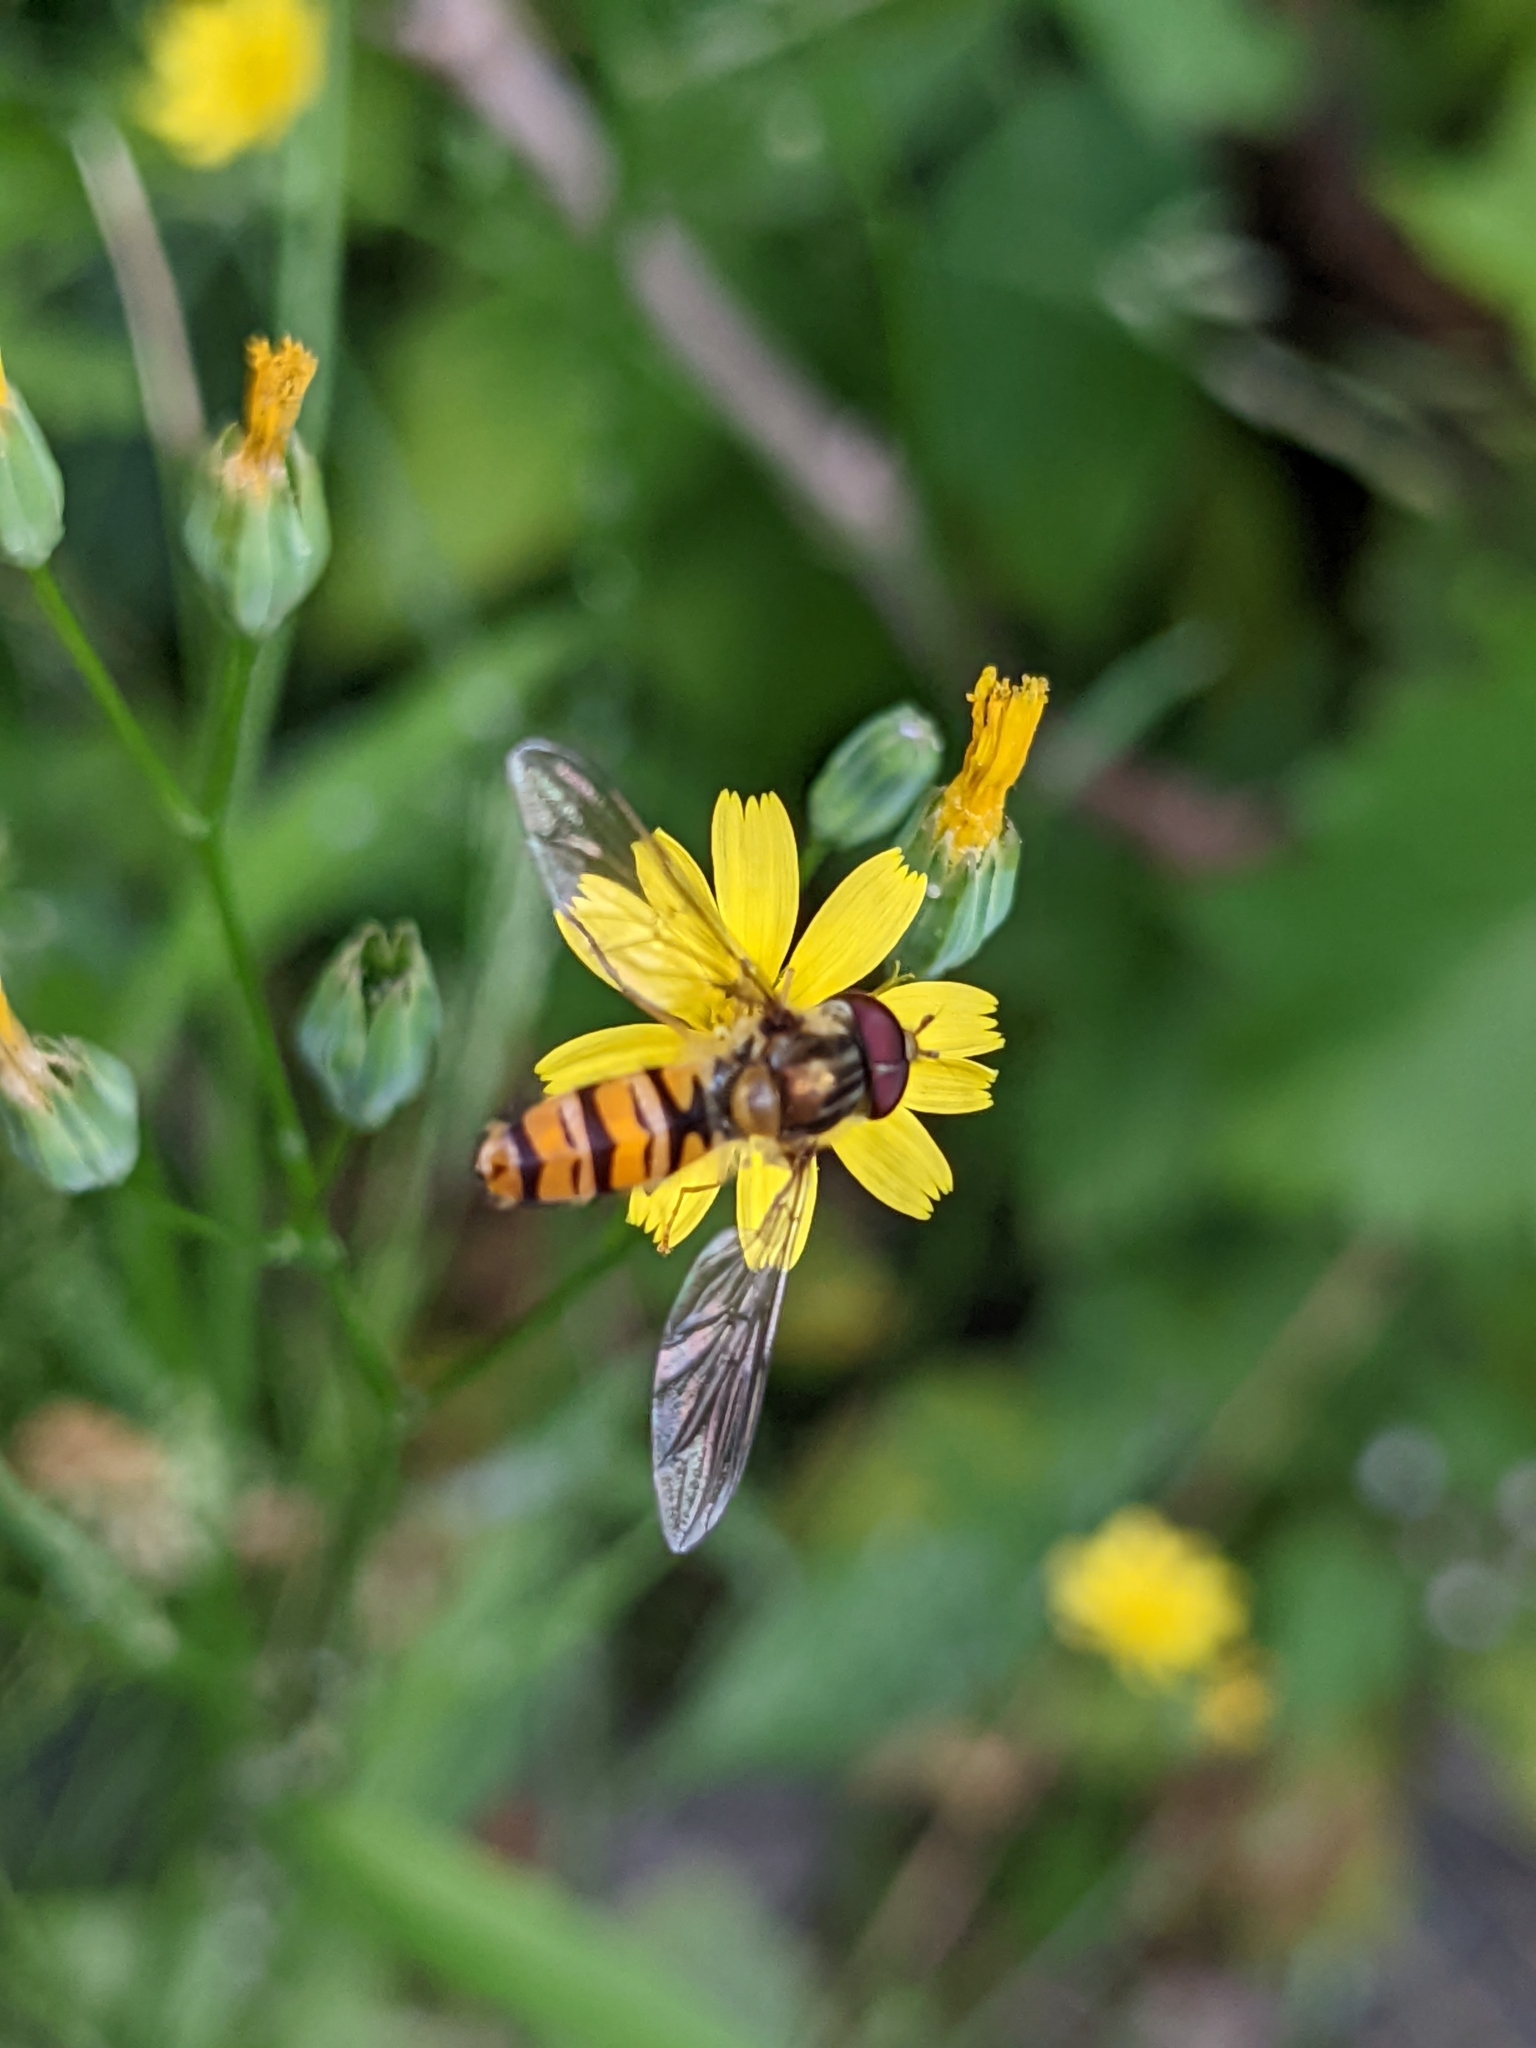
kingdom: Animalia
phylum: Arthropoda
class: Insecta
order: Diptera
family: Syrphidae
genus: Episyrphus
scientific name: Episyrphus balteatus
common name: Marmalade hoverfly
